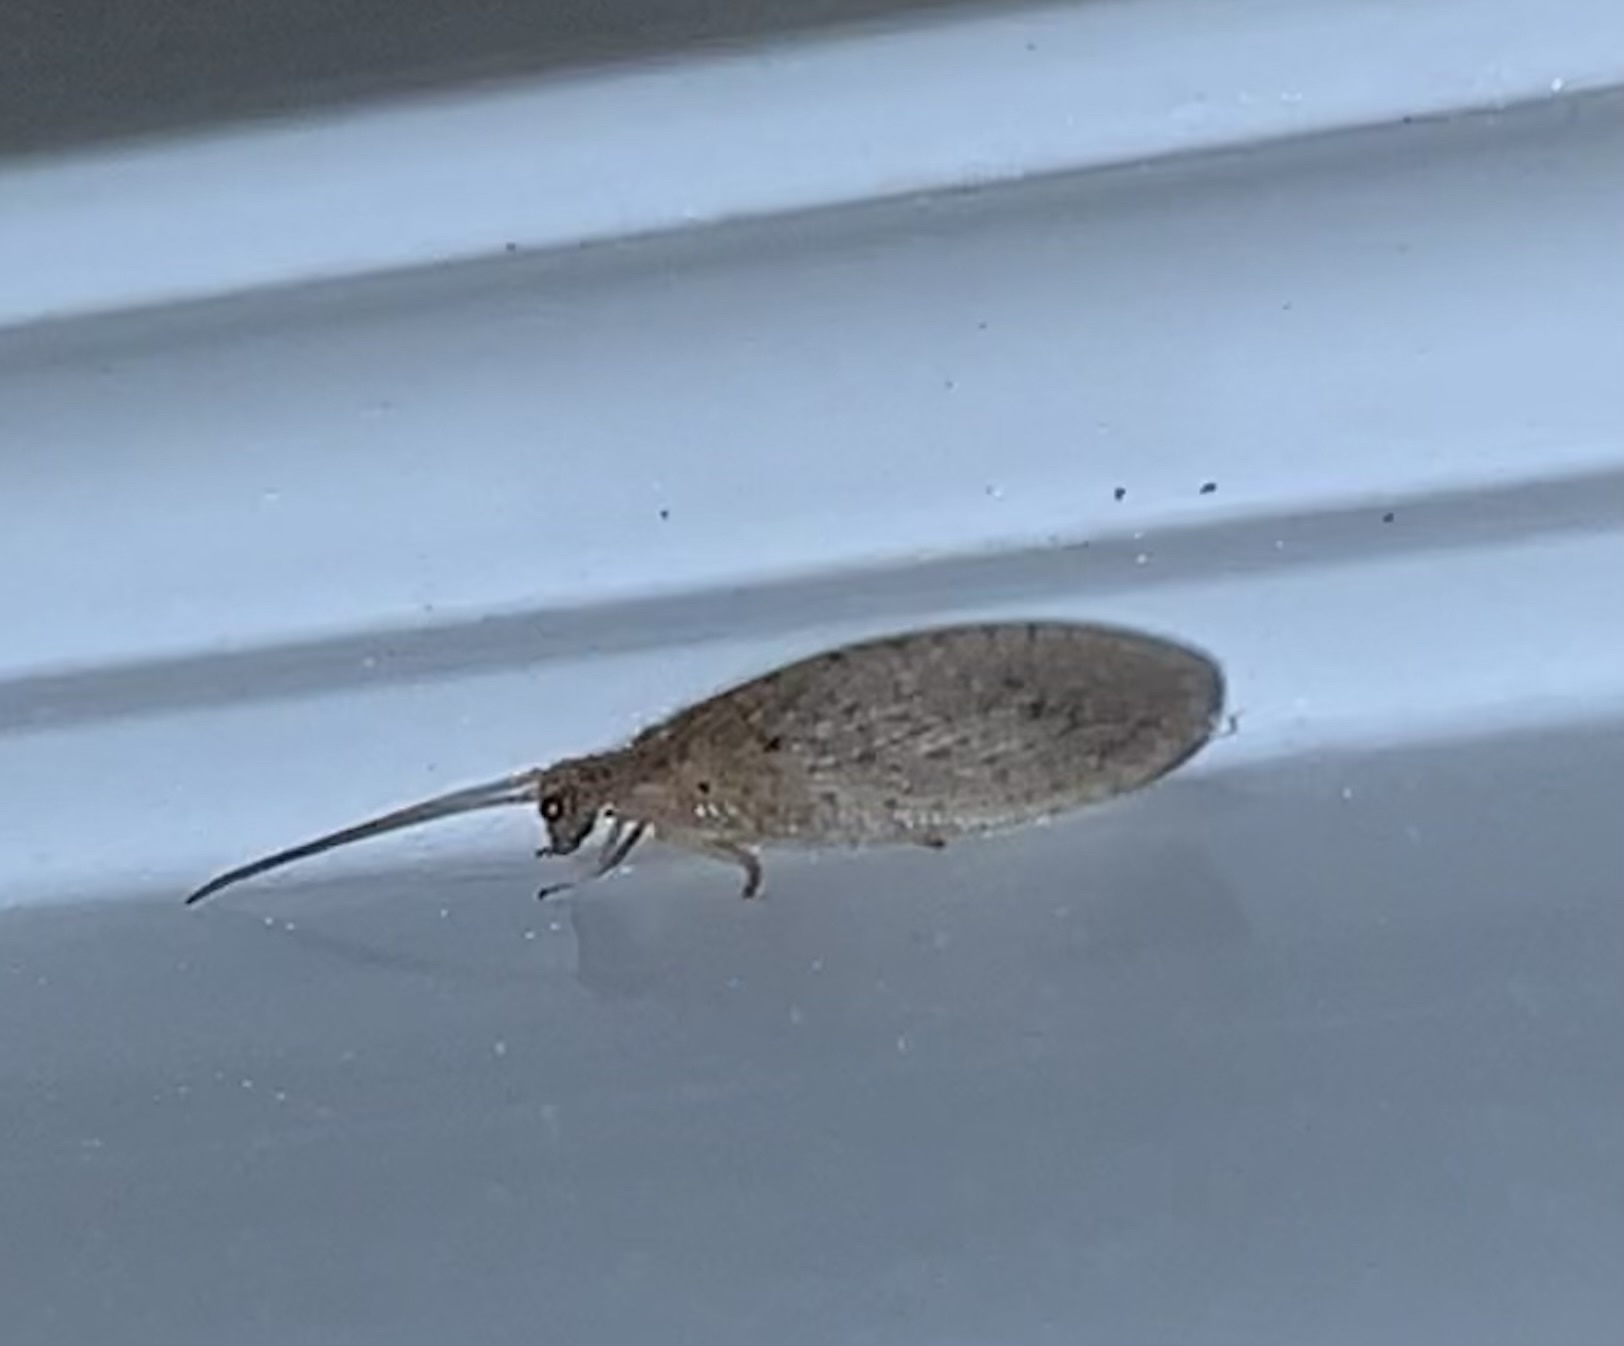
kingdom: Animalia
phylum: Arthropoda
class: Insecta
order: Neuroptera
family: Hemerobiidae
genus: Micromus
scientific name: Micromus subanticus
